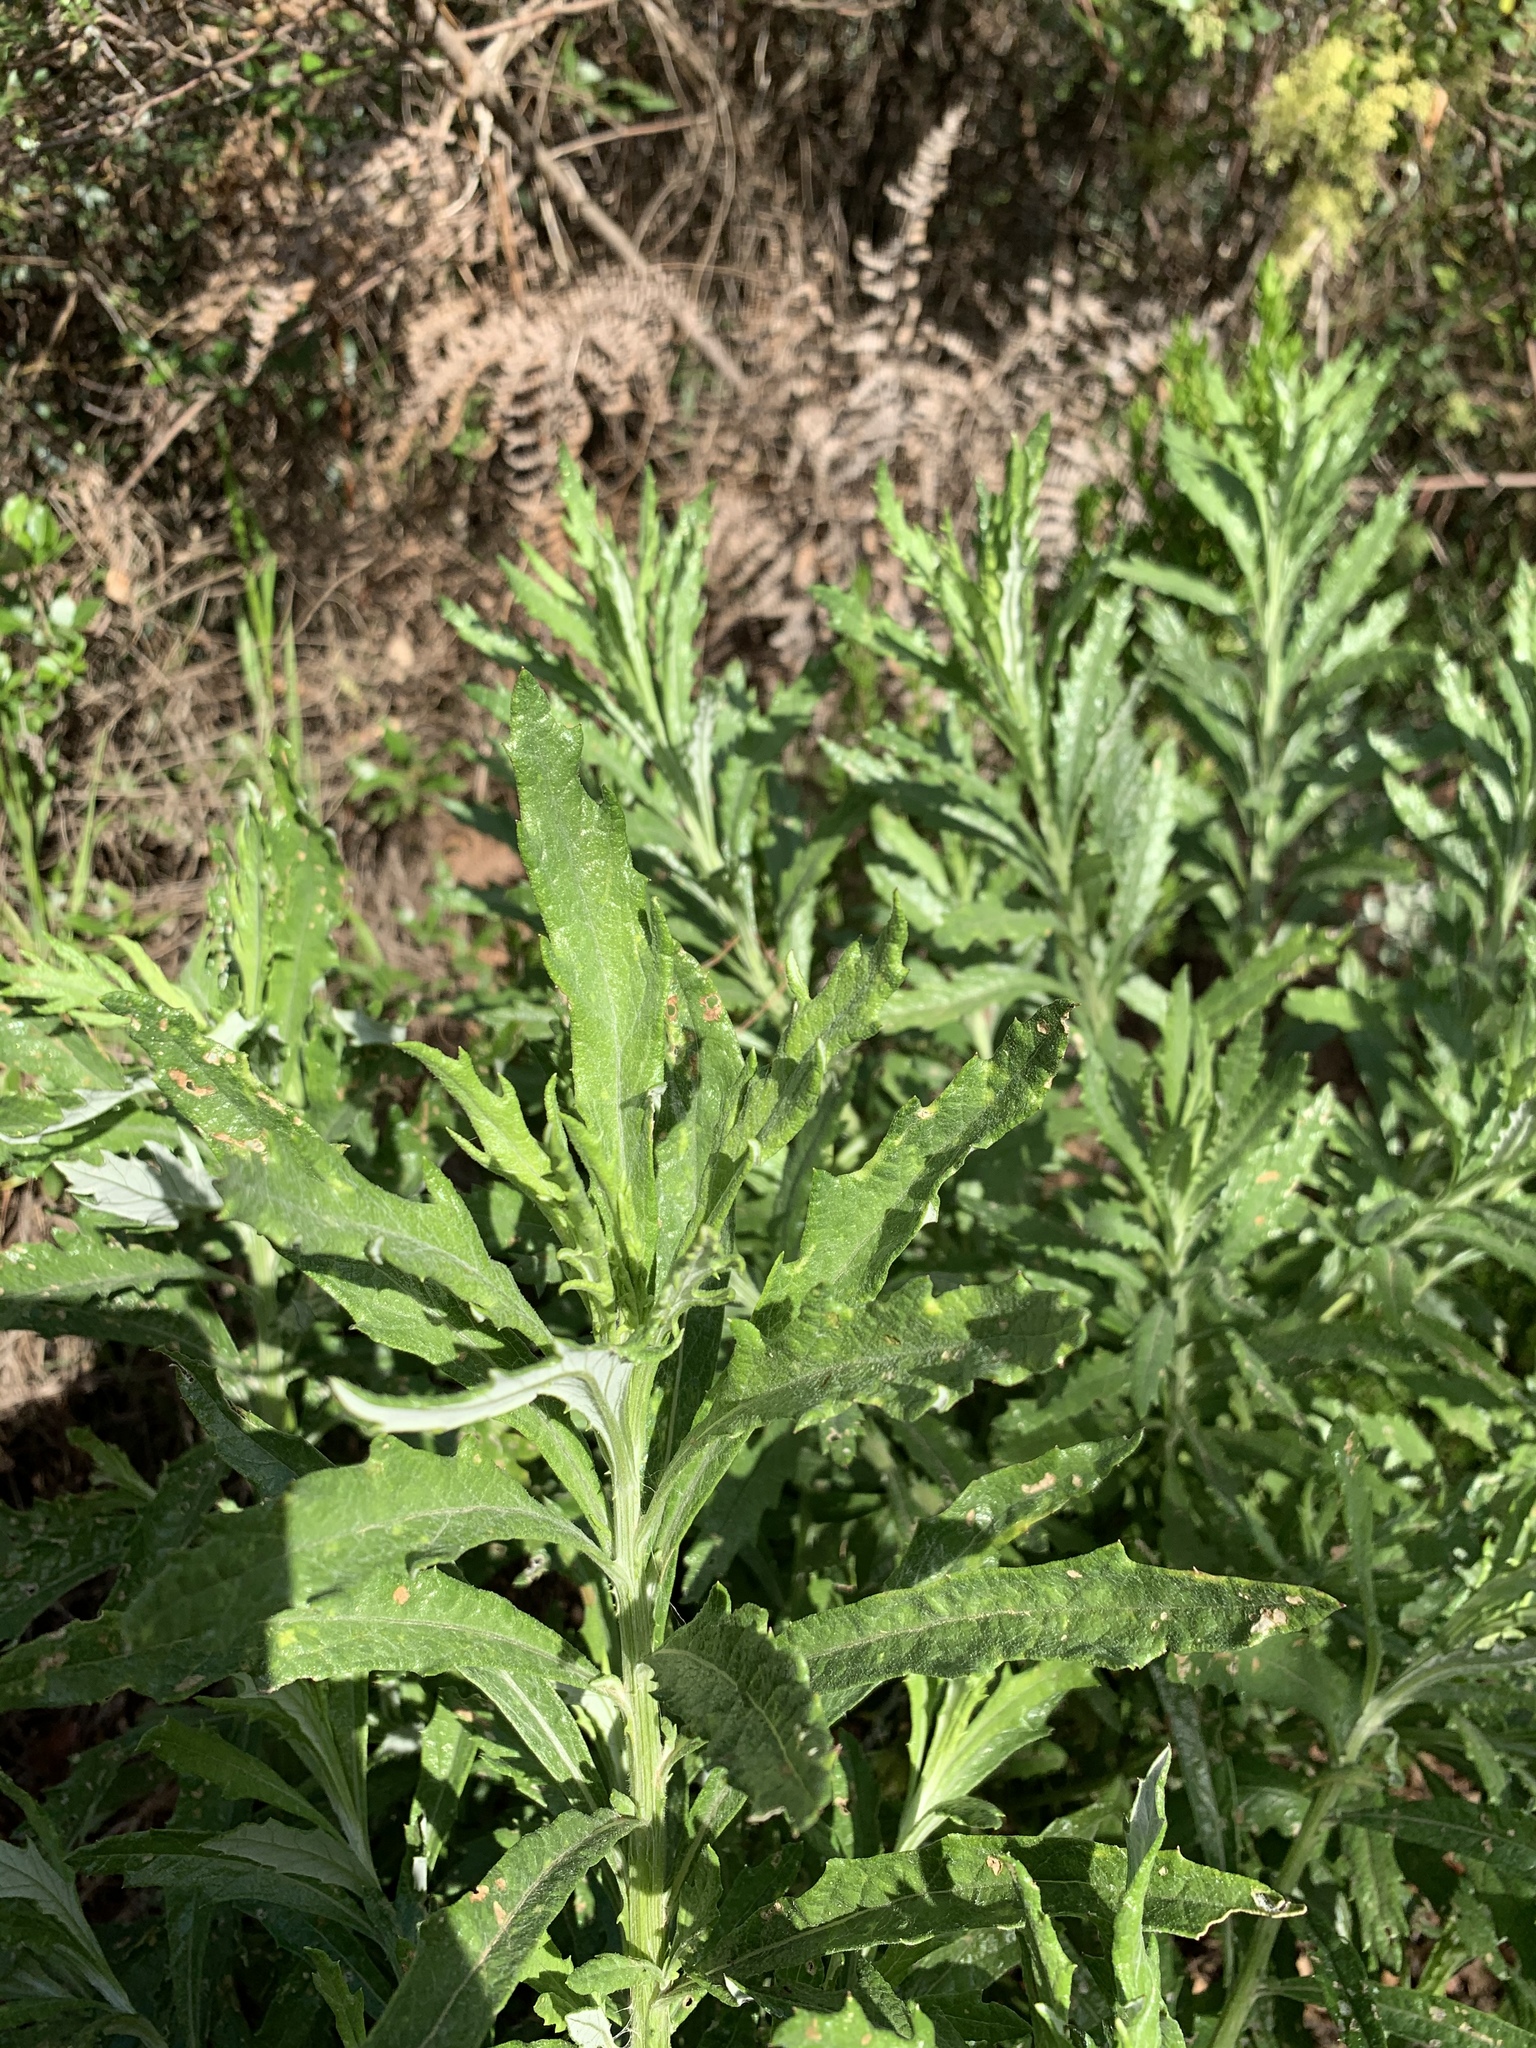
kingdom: Plantae
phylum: Tracheophyta
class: Magnoliopsida
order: Asterales
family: Asteraceae
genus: Senecio
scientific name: Senecio pterophorus
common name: Shoddy ragwort
